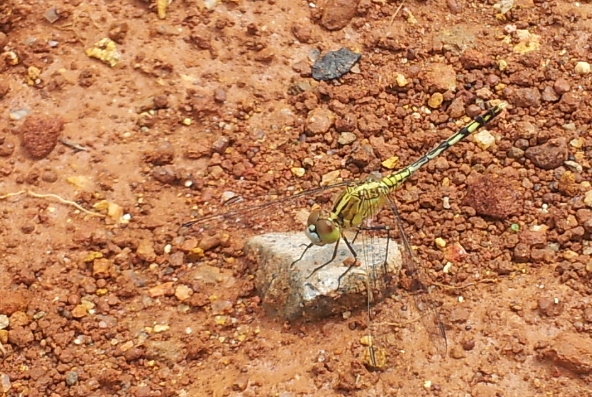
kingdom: Animalia
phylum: Arthropoda
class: Insecta
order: Odonata
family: Libellulidae
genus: Diplacodes
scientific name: Diplacodes trivialis
